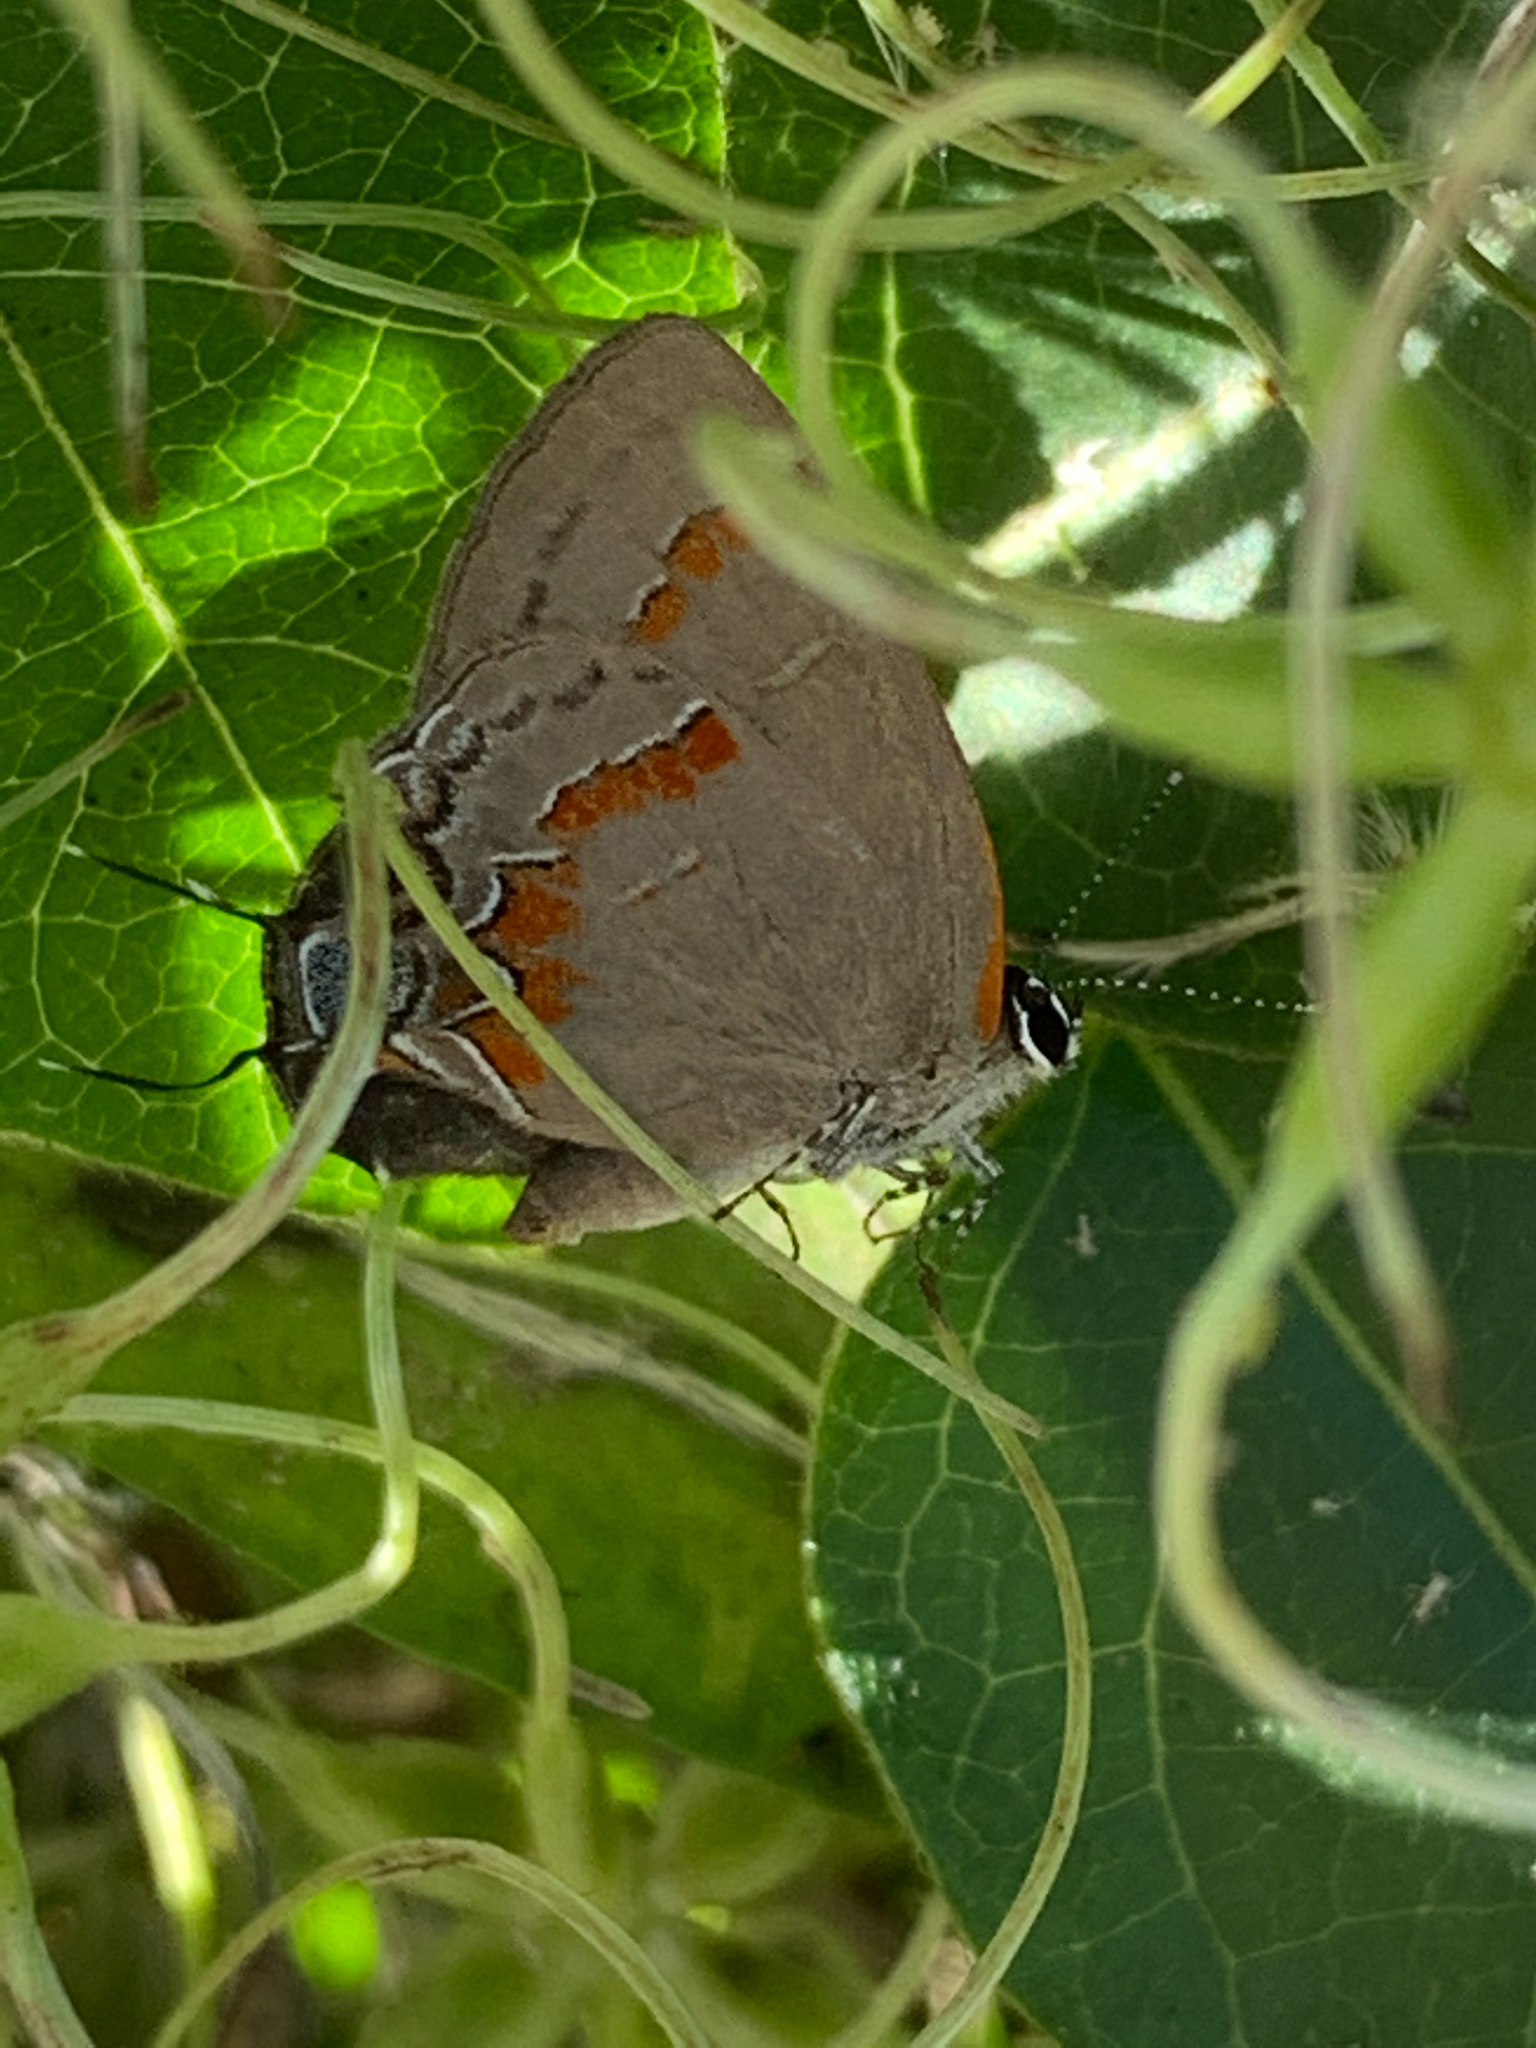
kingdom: Animalia
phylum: Arthropoda
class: Insecta
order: Lepidoptera
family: Lycaenidae
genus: Calycopis
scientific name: Calycopis cecrops
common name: Red-banded hairstreak
